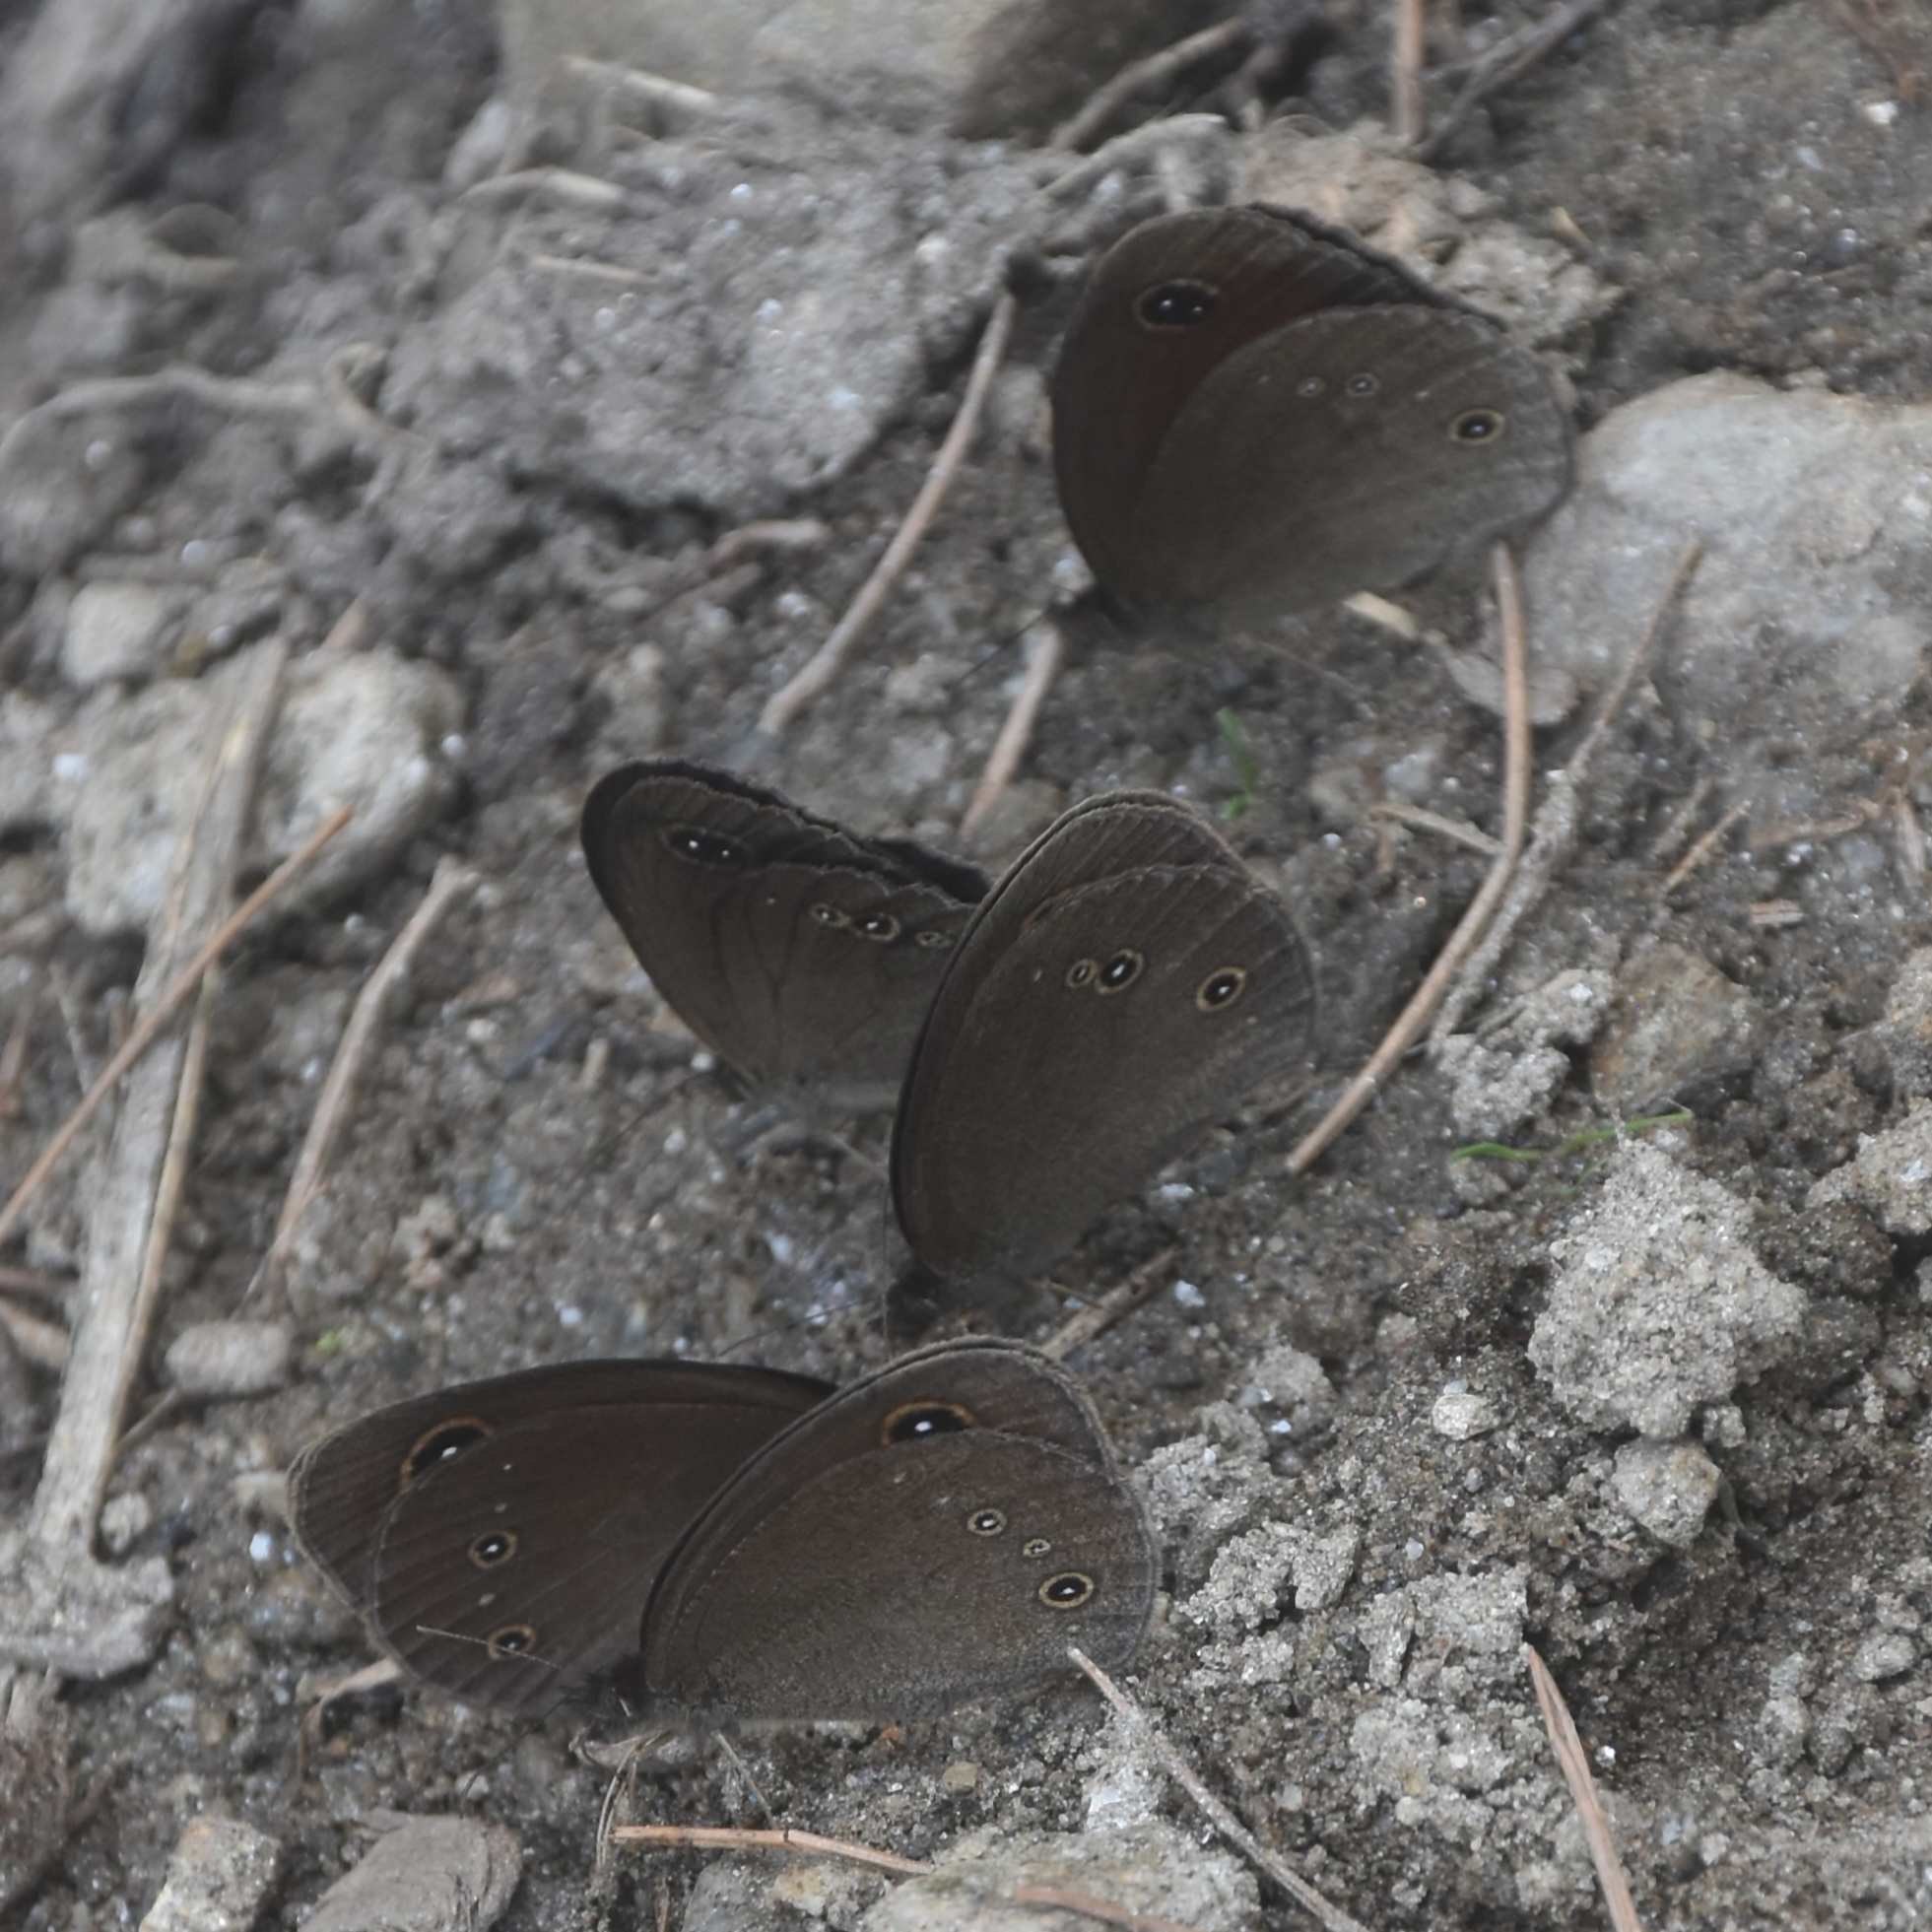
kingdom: Animalia
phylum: Arthropoda
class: Insecta
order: Lepidoptera
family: Nymphalidae
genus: Callerebia
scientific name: Callerebia nirmala
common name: Common argus
